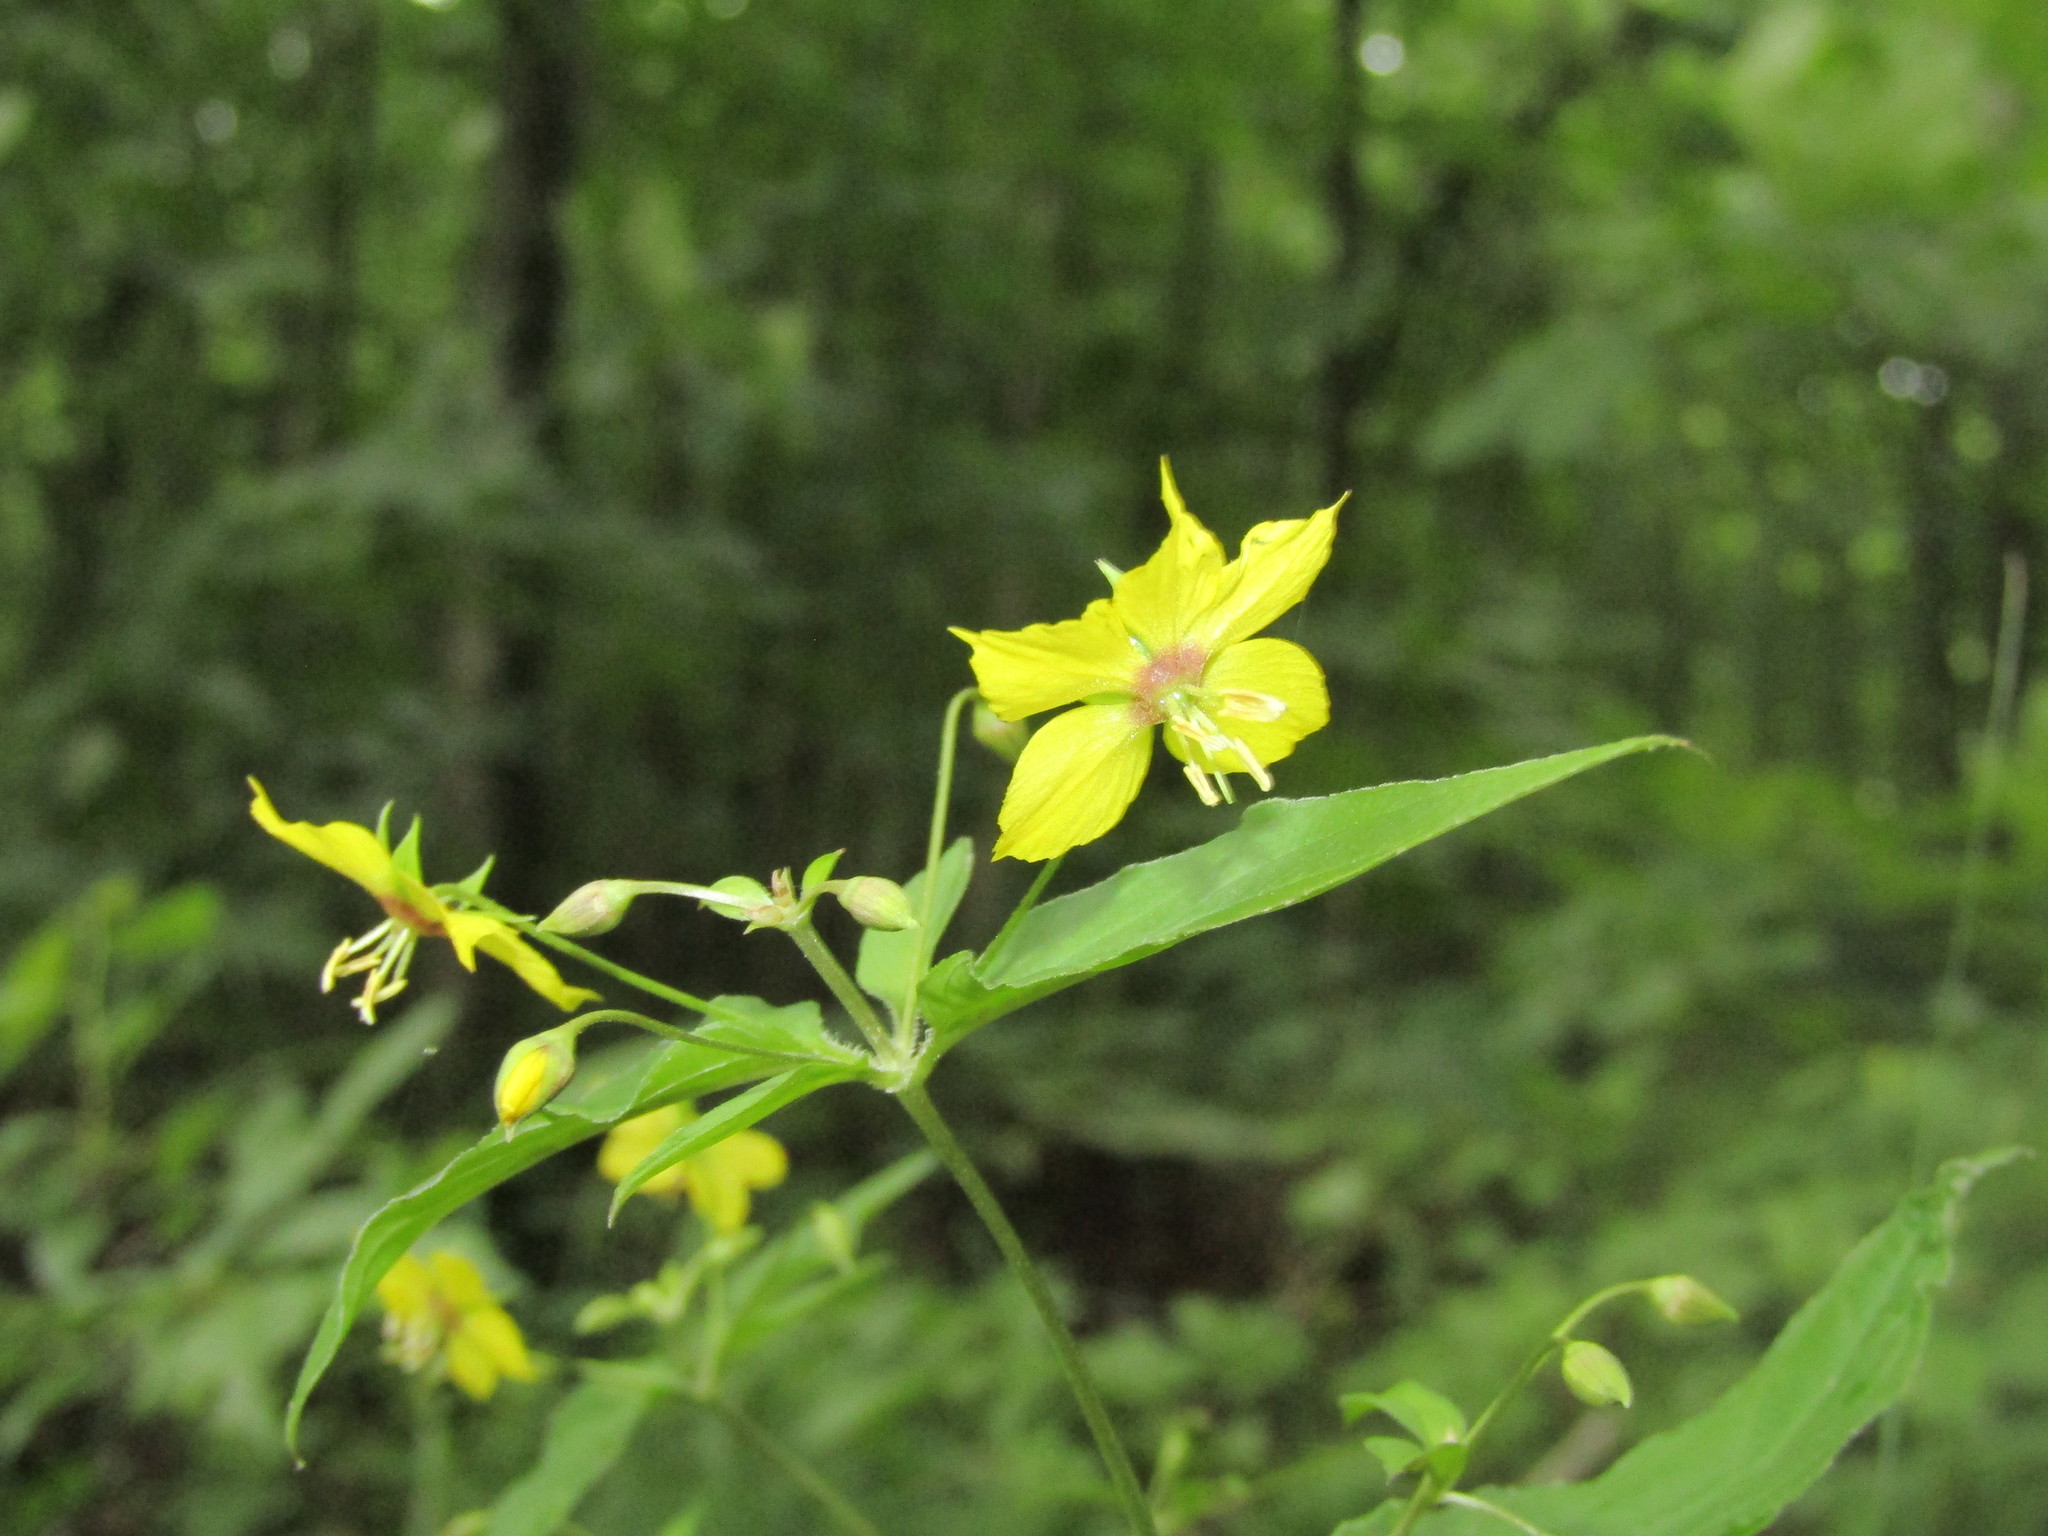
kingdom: Plantae
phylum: Tracheophyta
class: Magnoliopsida
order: Ericales
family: Primulaceae
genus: Lysimachia
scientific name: Lysimachia ciliata
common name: Fringed loosestrife
